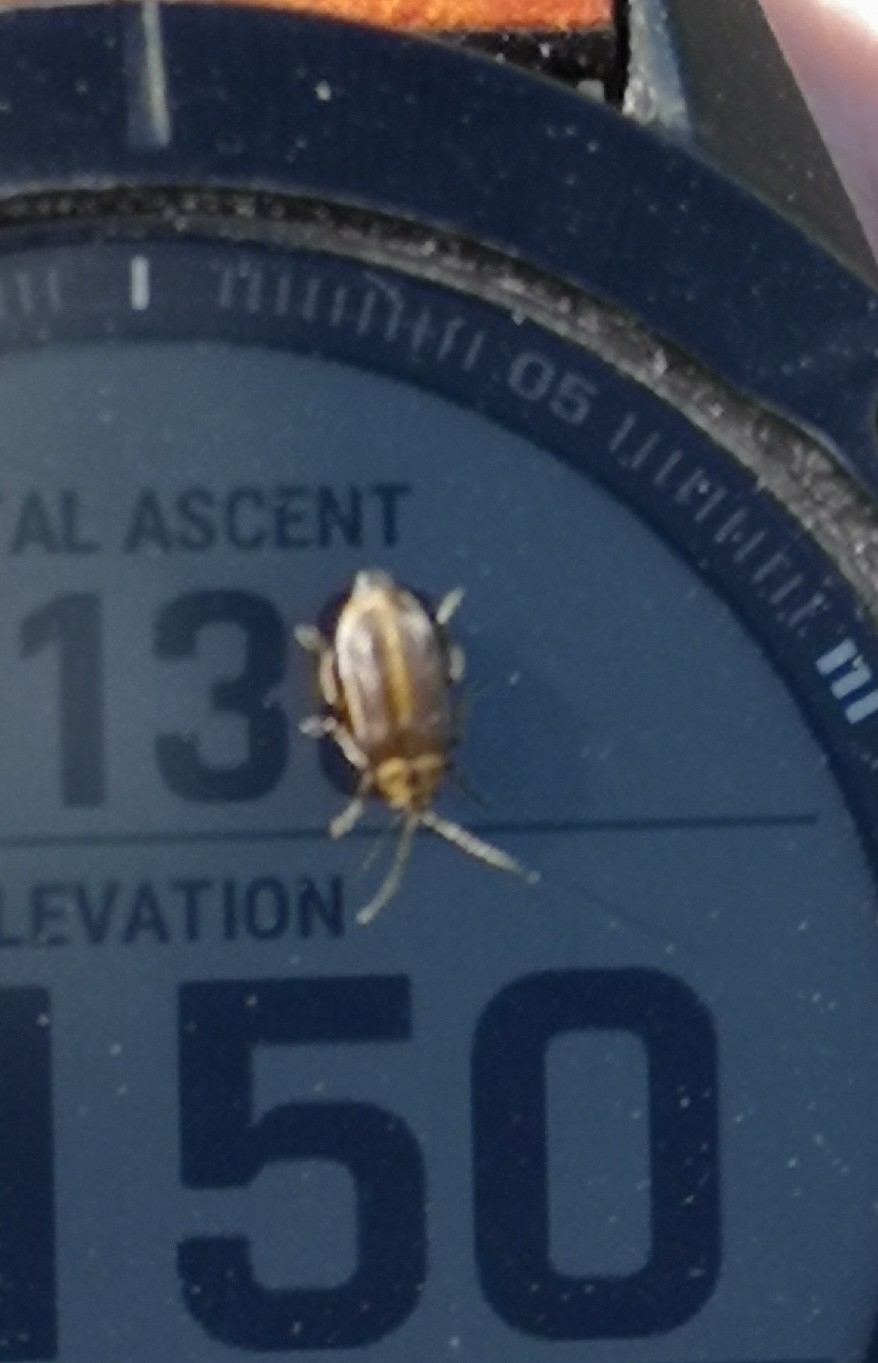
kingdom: Animalia
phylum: Arthropoda
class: Insecta
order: Coleoptera
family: Chrysomelidae
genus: Galerucella
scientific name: Galerucella lineola
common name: Brown willow beetle
